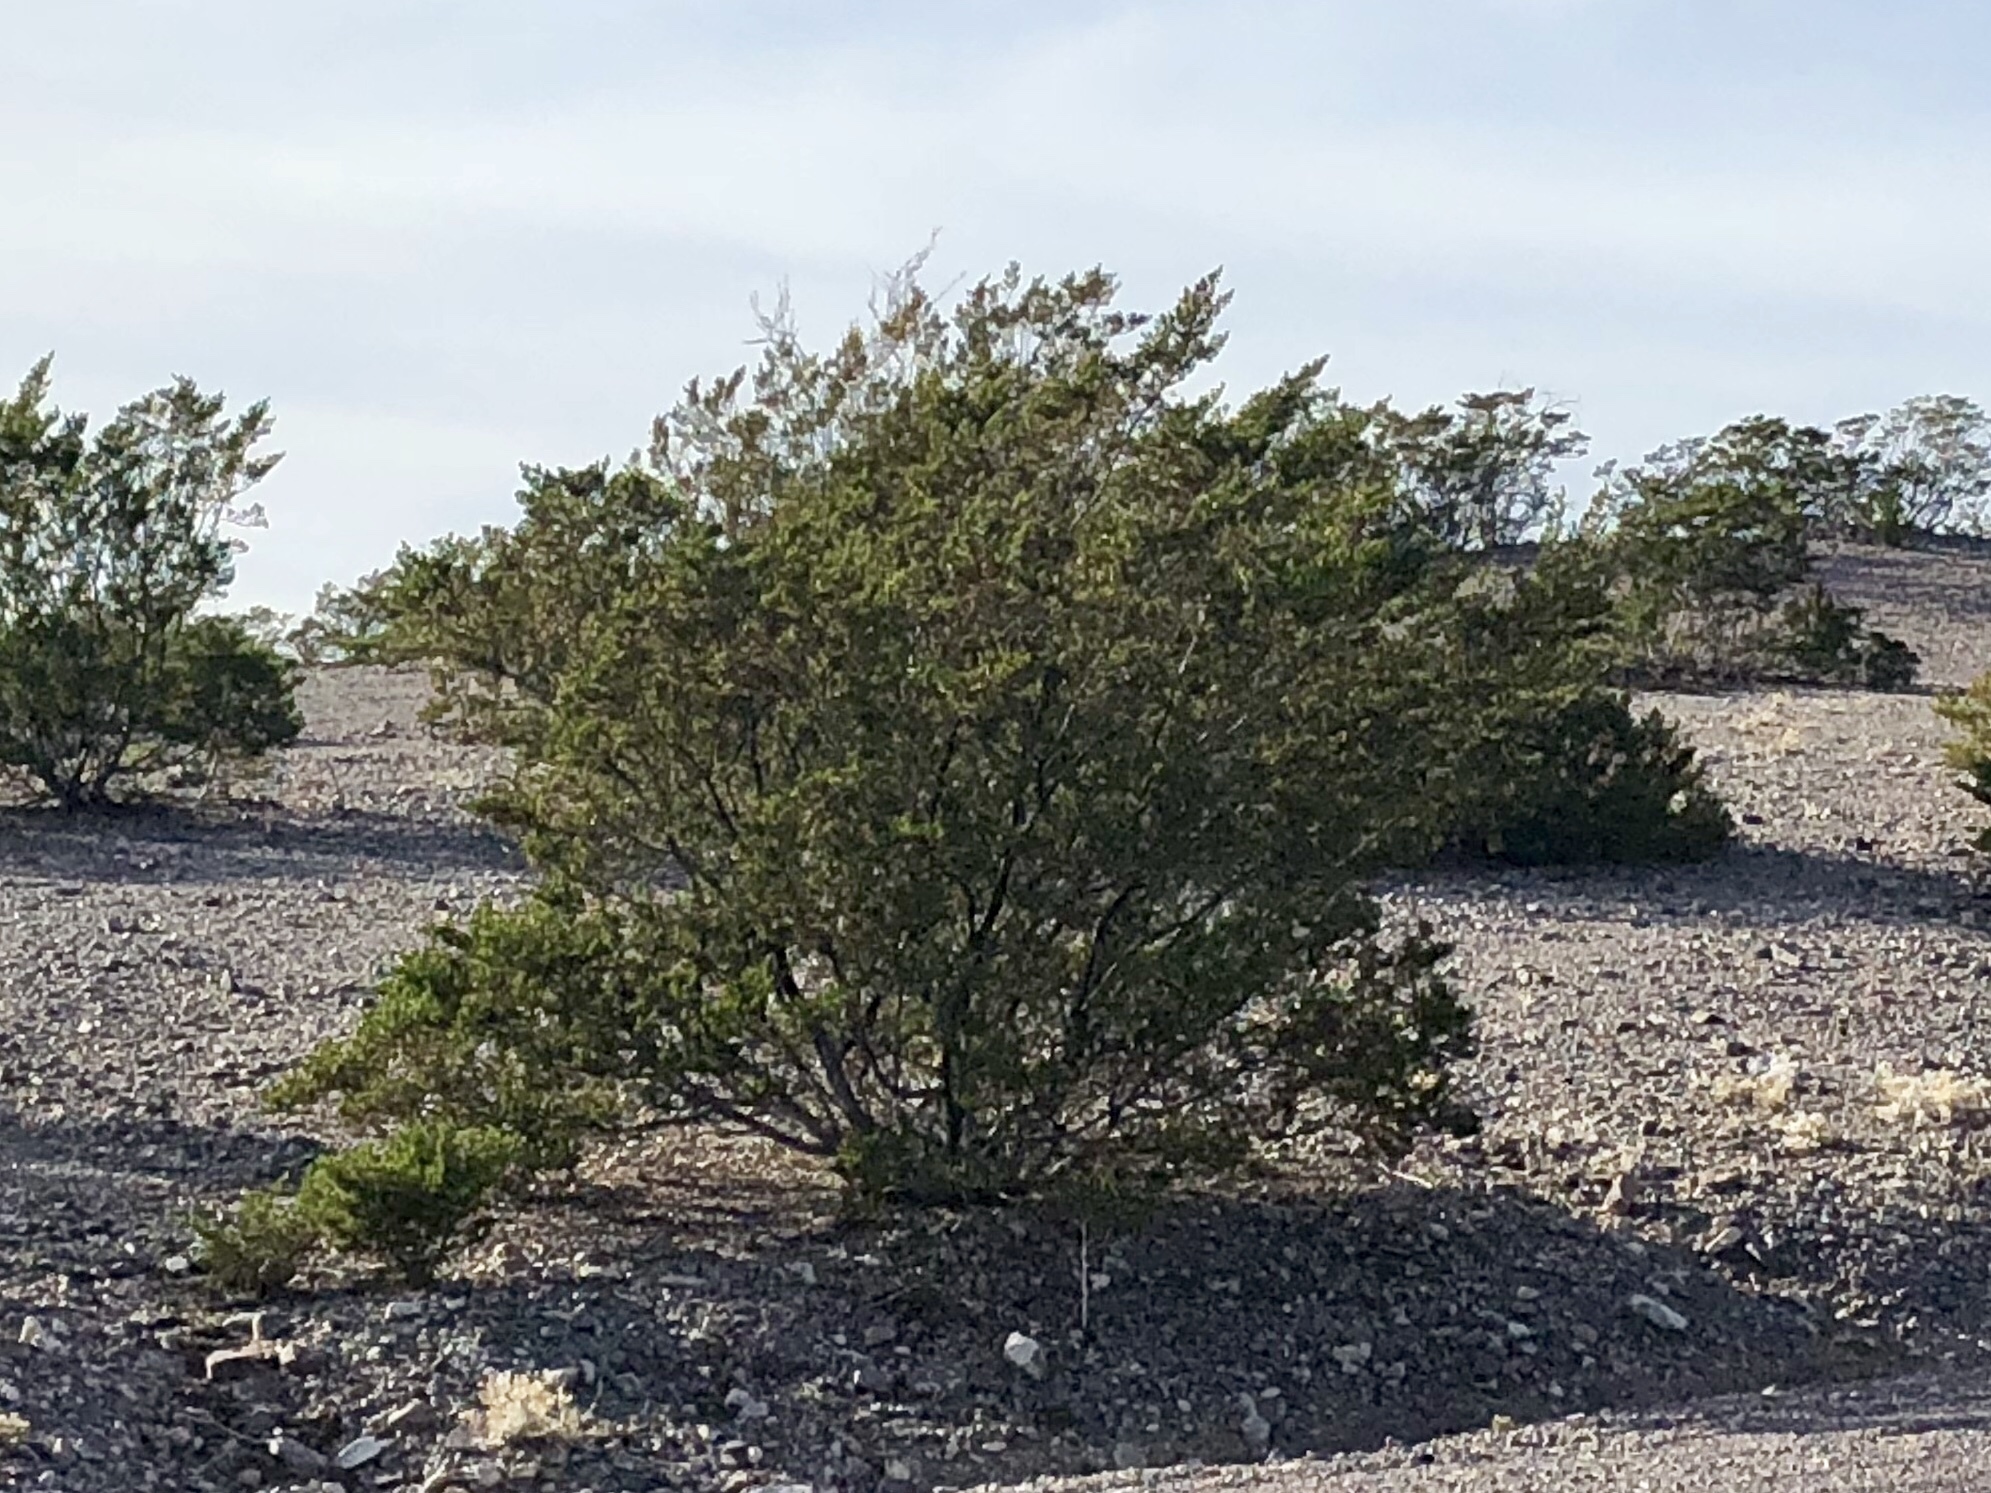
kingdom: Plantae
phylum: Tracheophyta
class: Magnoliopsida
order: Zygophyllales
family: Zygophyllaceae
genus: Larrea
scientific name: Larrea tridentata
